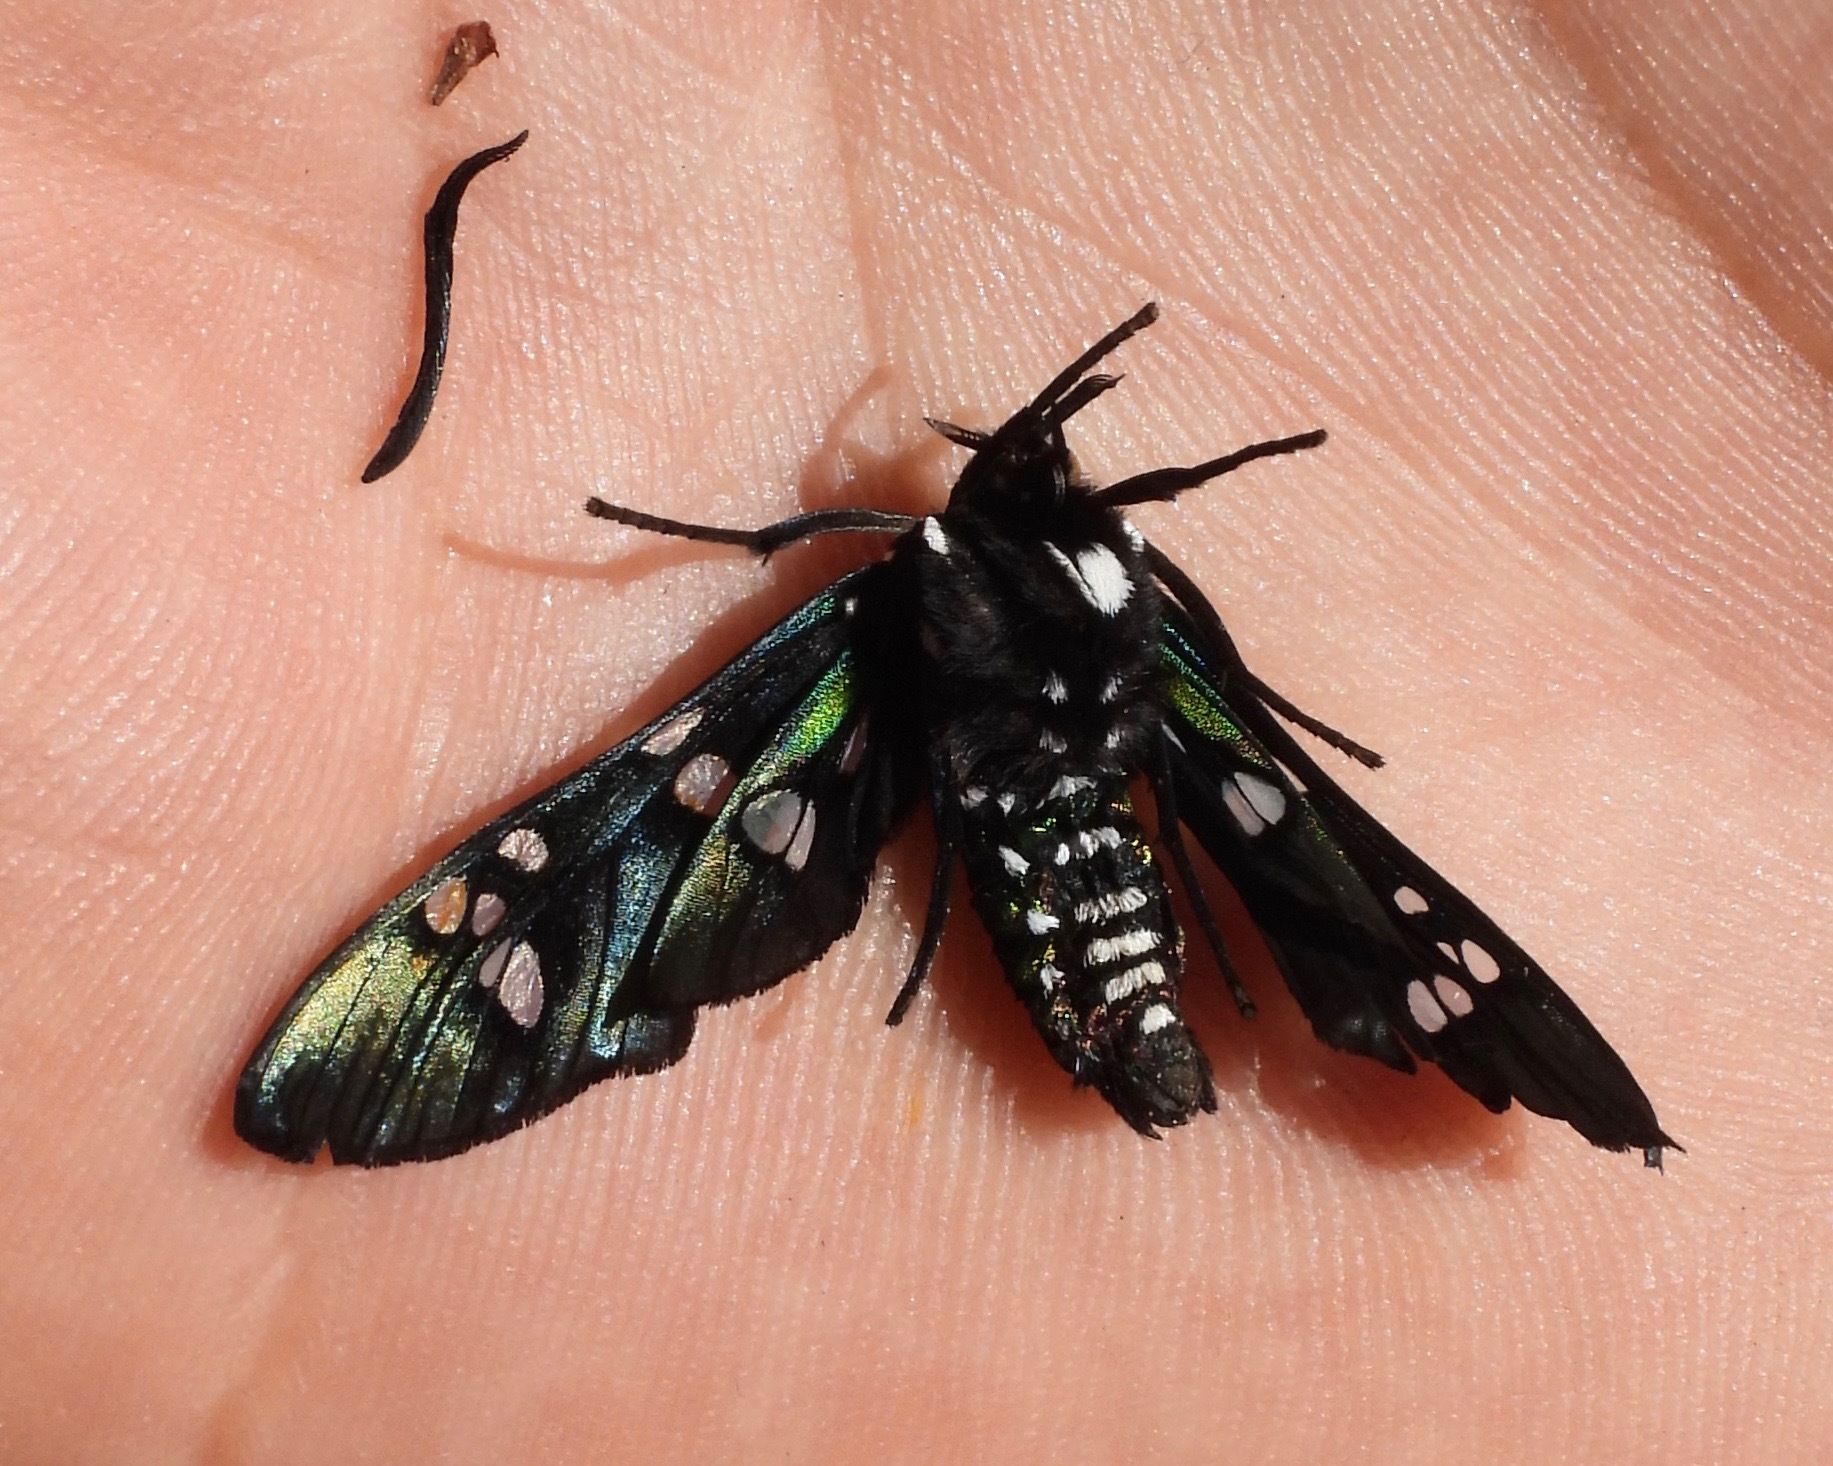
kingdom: Animalia
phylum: Arthropoda
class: Insecta
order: Lepidoptera
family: Erebidae
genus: Chrysocale
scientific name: Chrysocale principalis
